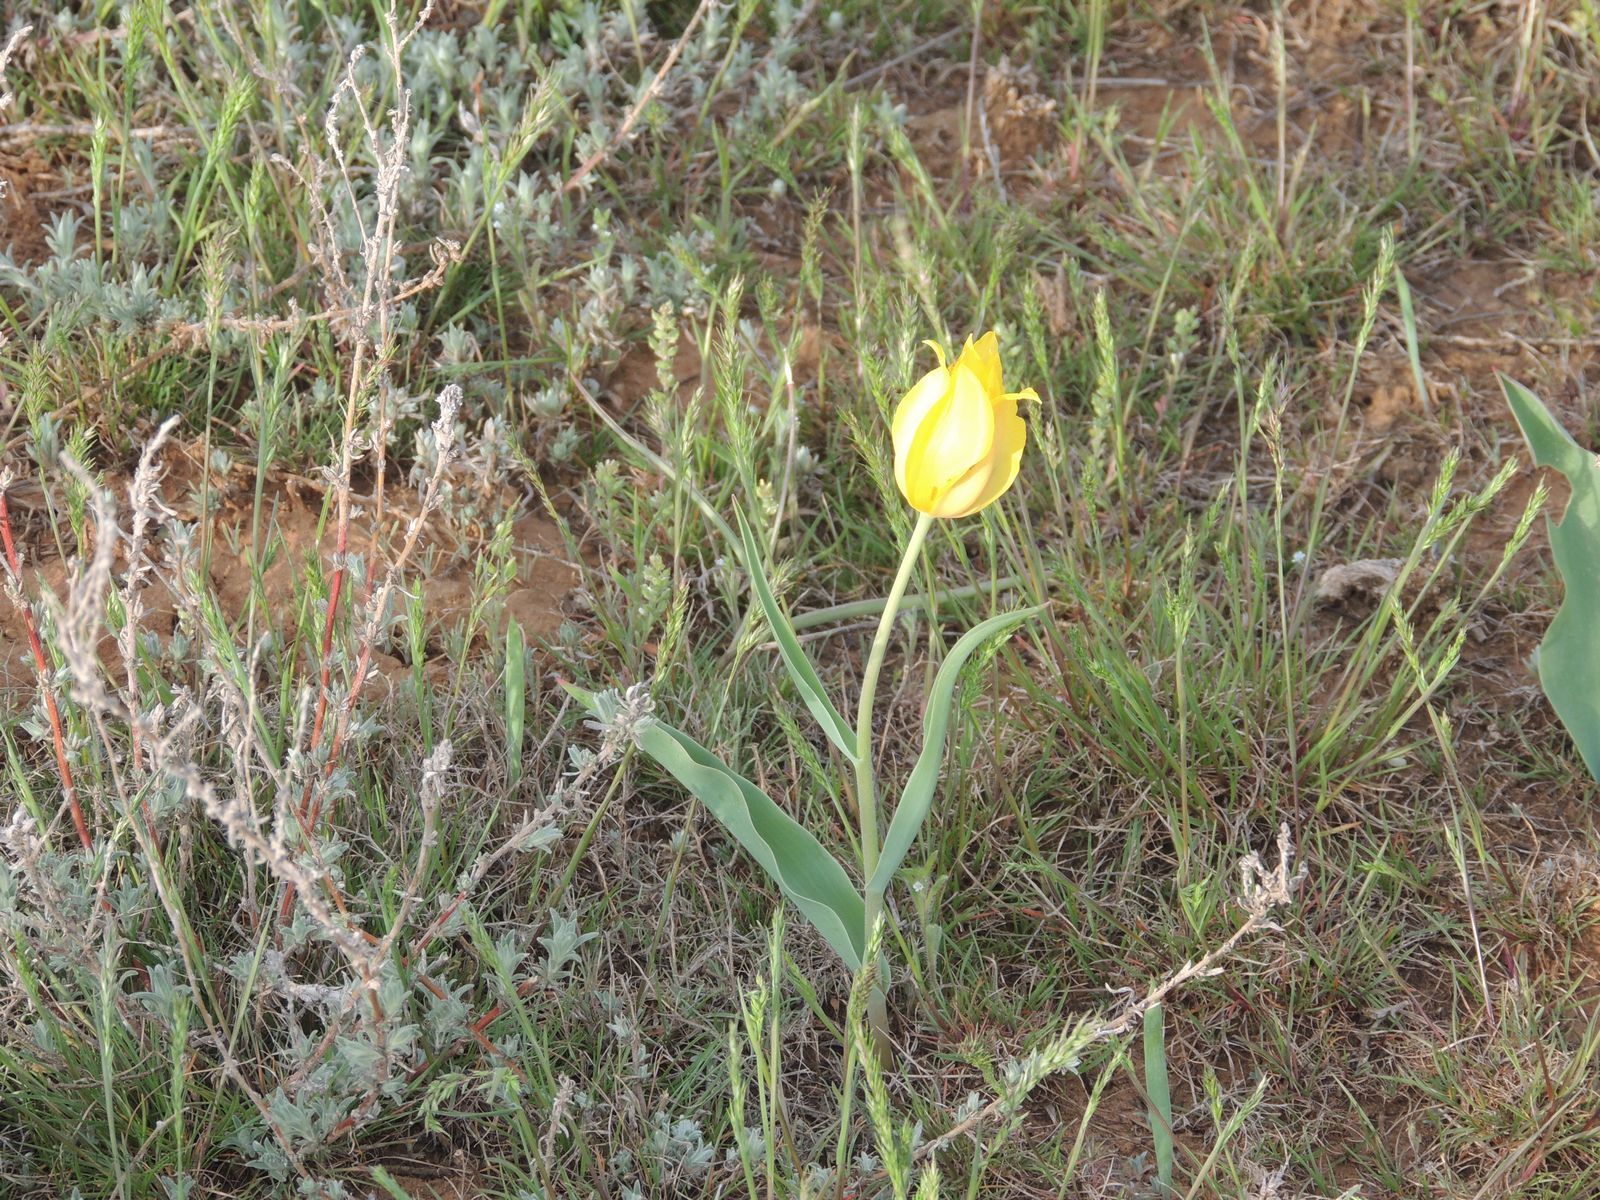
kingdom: Plantae
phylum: Tracheophyta
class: Liliopsida
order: Liliales
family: Liliaceae
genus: Tulipa
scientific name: Tulipa suaveolens
